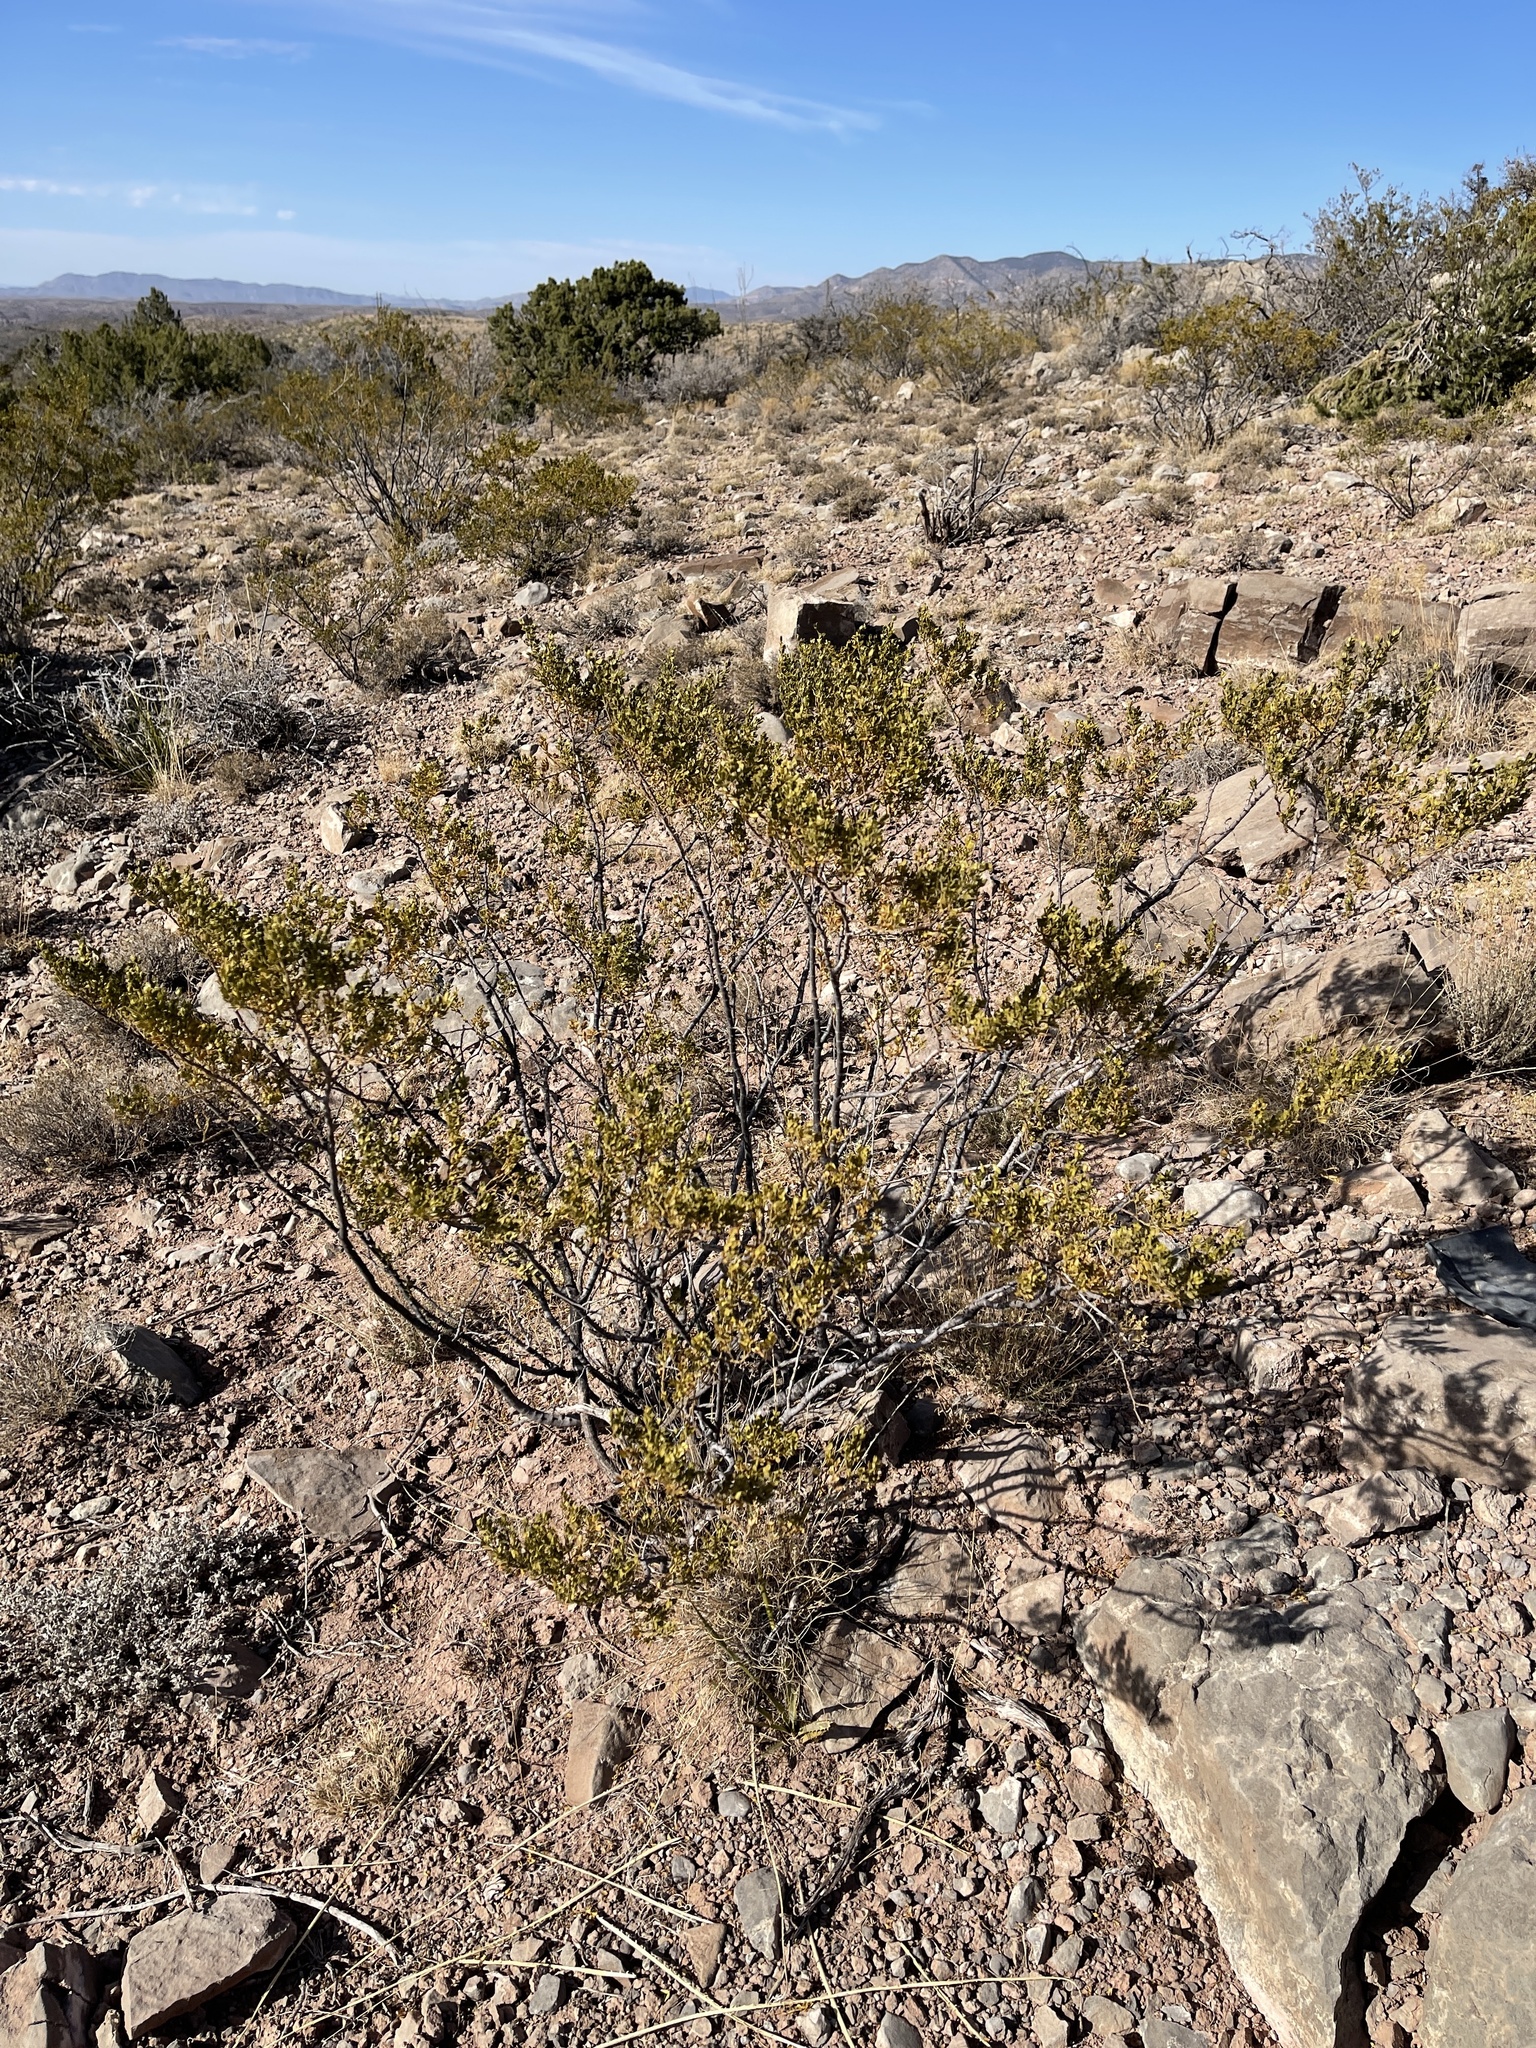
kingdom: Plantae
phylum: Tracheophyta
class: Magnoliopsida
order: Zygophyllales
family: Zygophyllaceae
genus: Larrea
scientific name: Larrea tridentata
